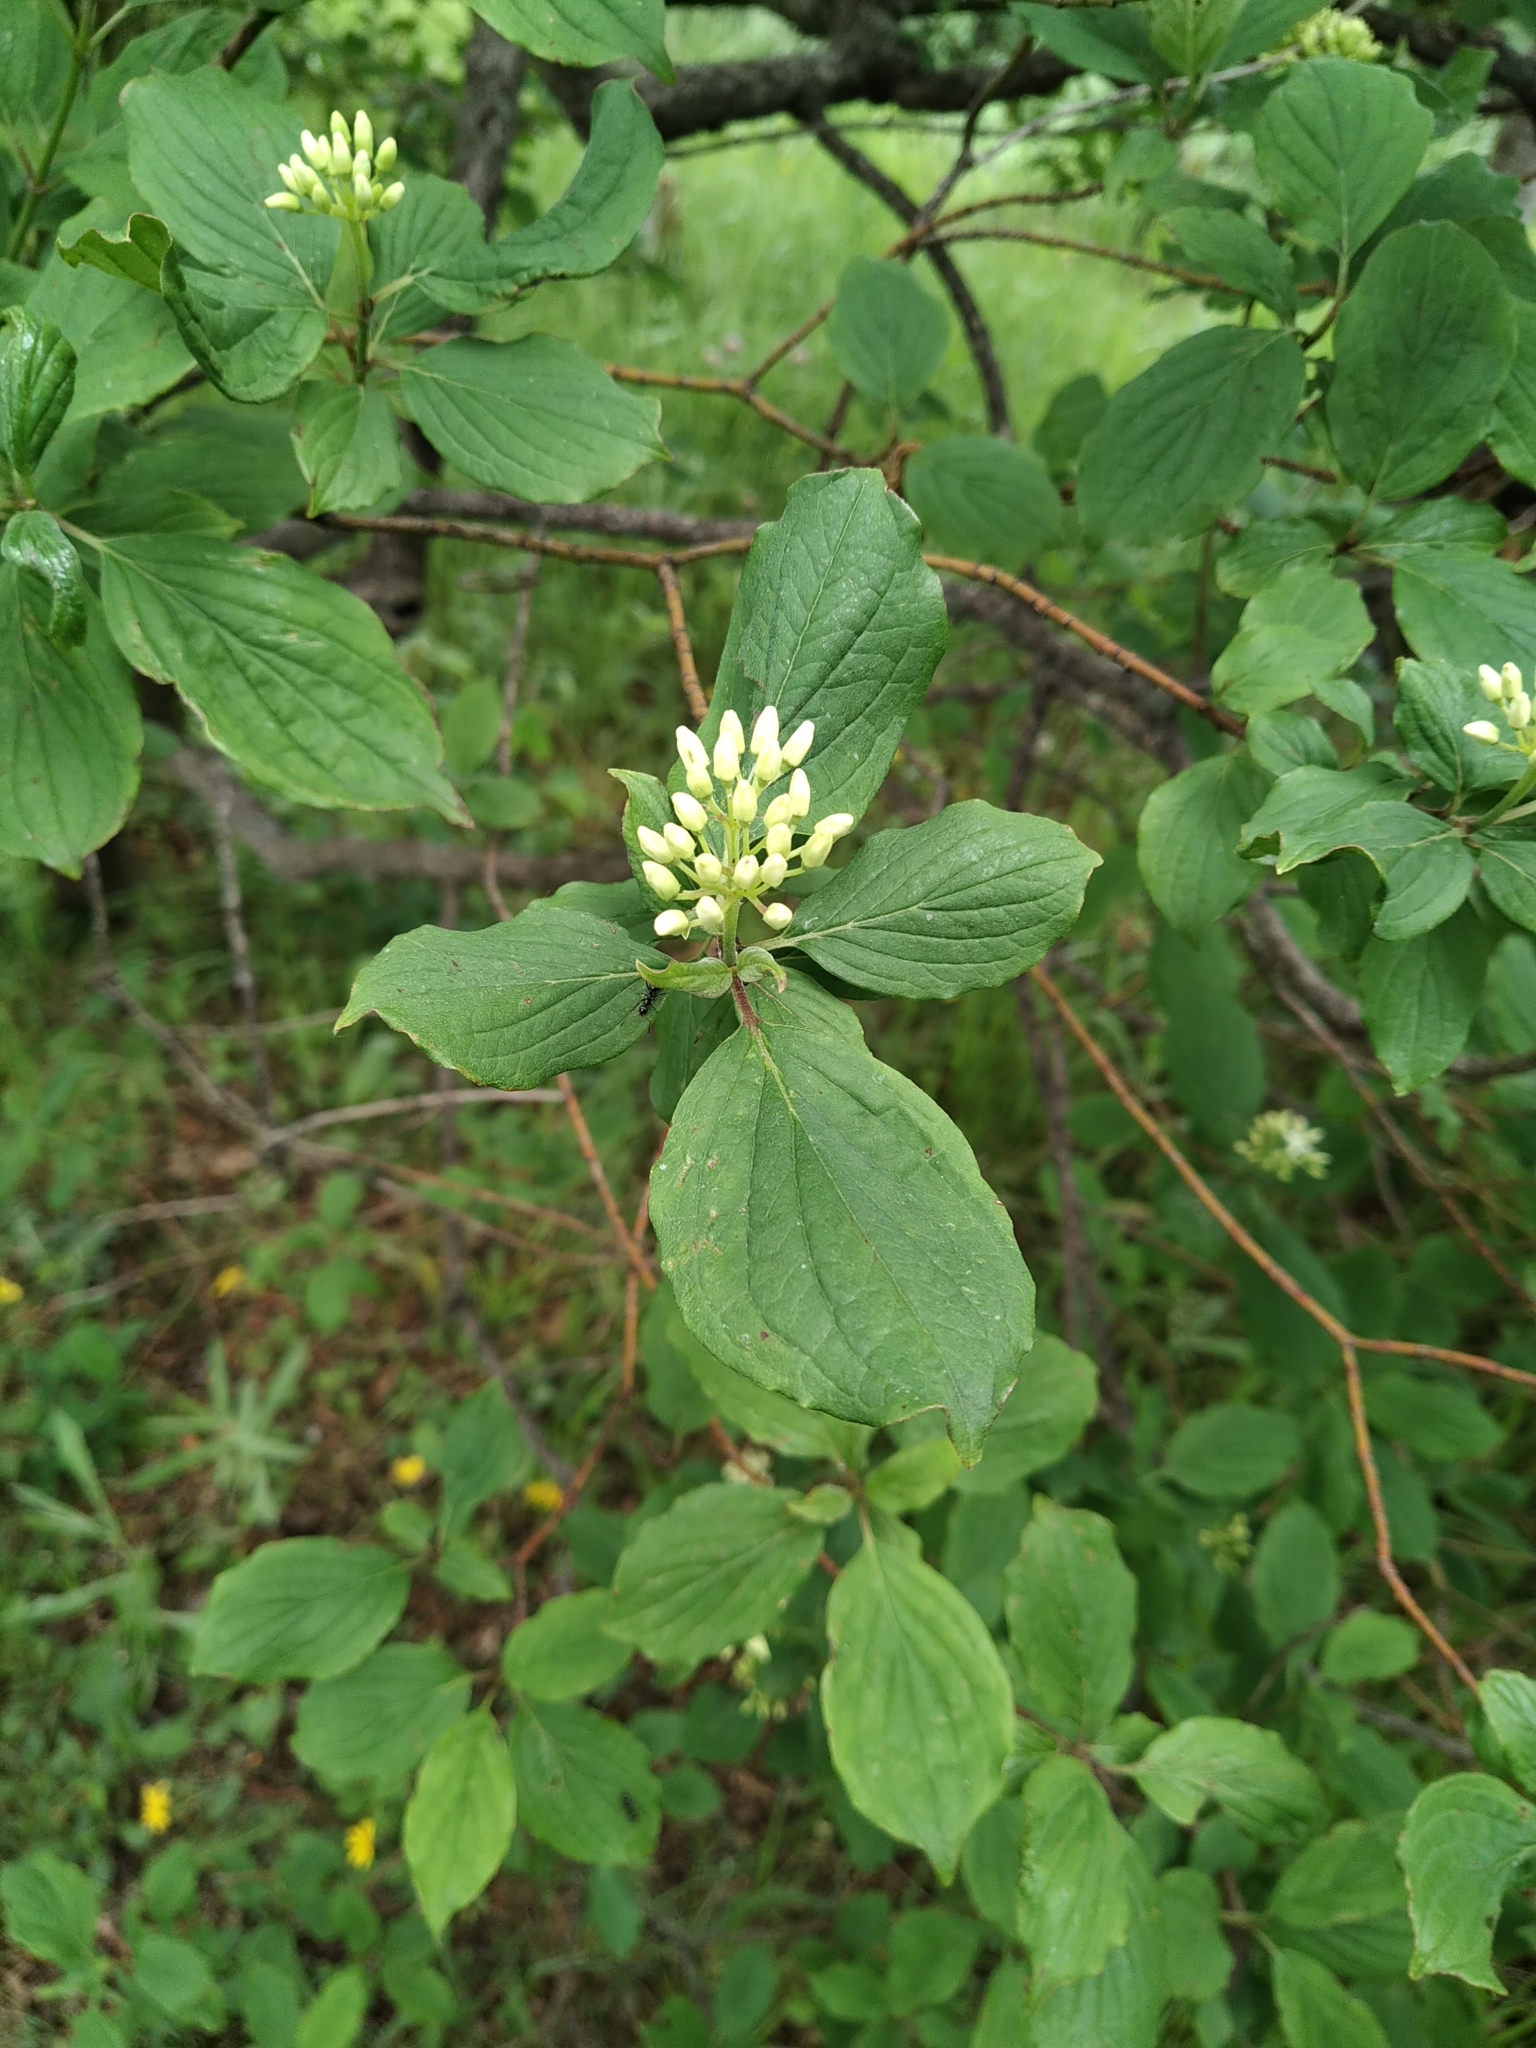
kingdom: Plantae
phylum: Tracheophyta
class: Magnoliopsida
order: Cornales
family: Cornaceae
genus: Cornus
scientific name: Cornus sanguinea
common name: Dogwood
